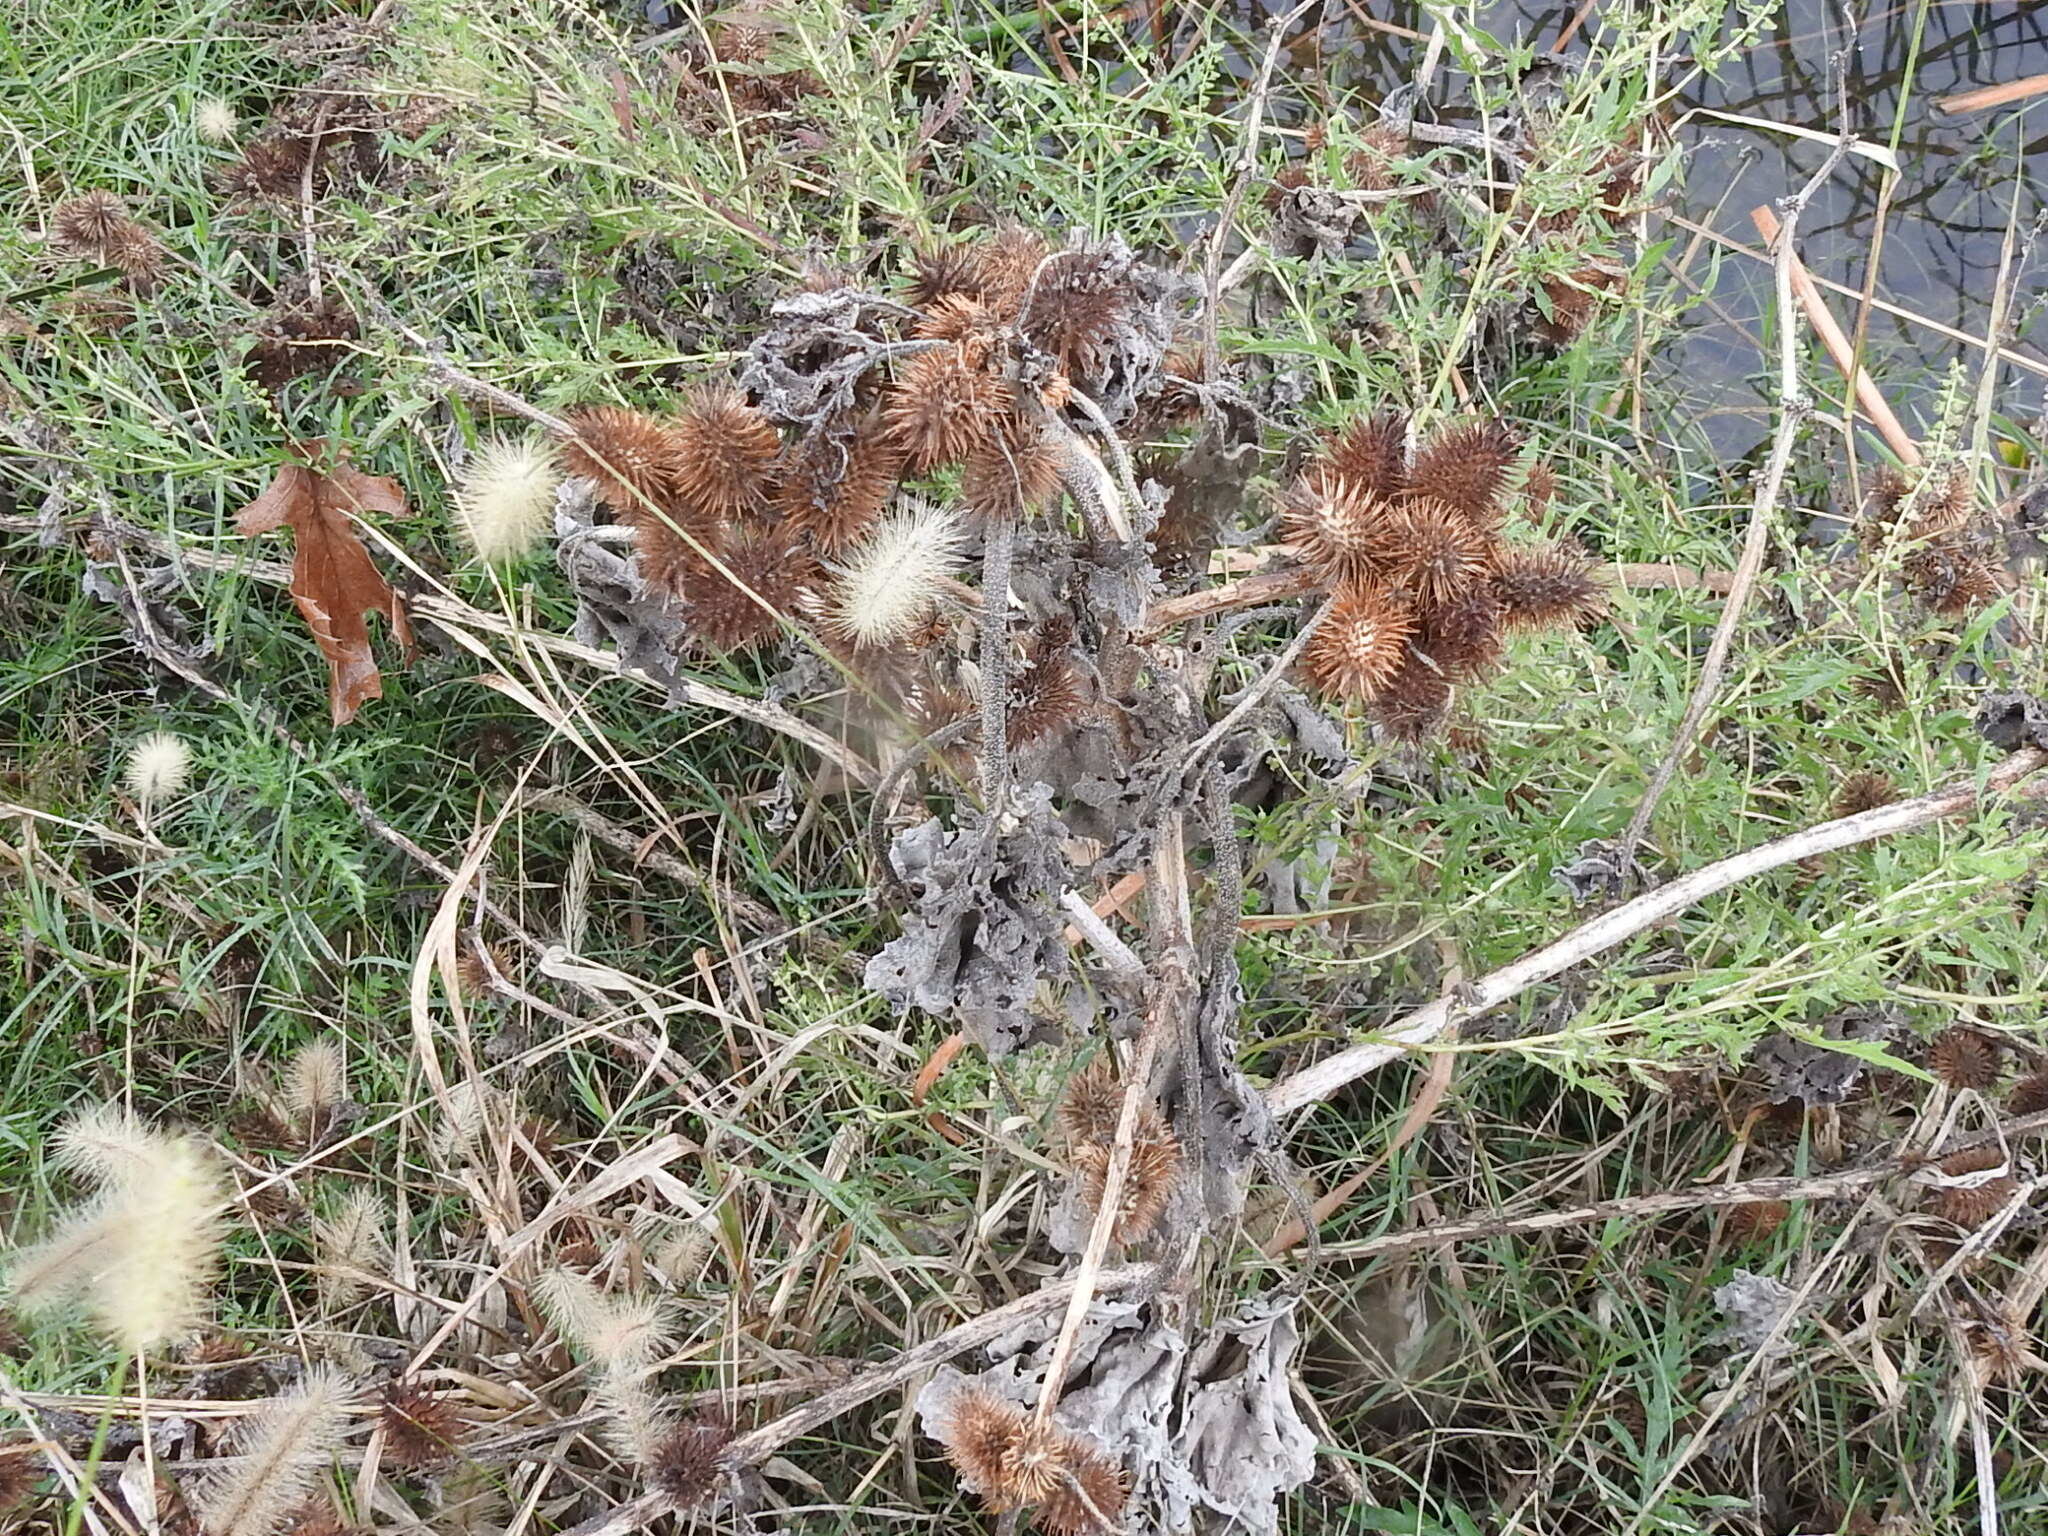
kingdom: Plantae
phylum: Tracheophyta
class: Magnoliopsida
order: Asterales
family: Asteraceae
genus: Xanthium
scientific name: Xanthium strumarium
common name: Rough cocklebur
